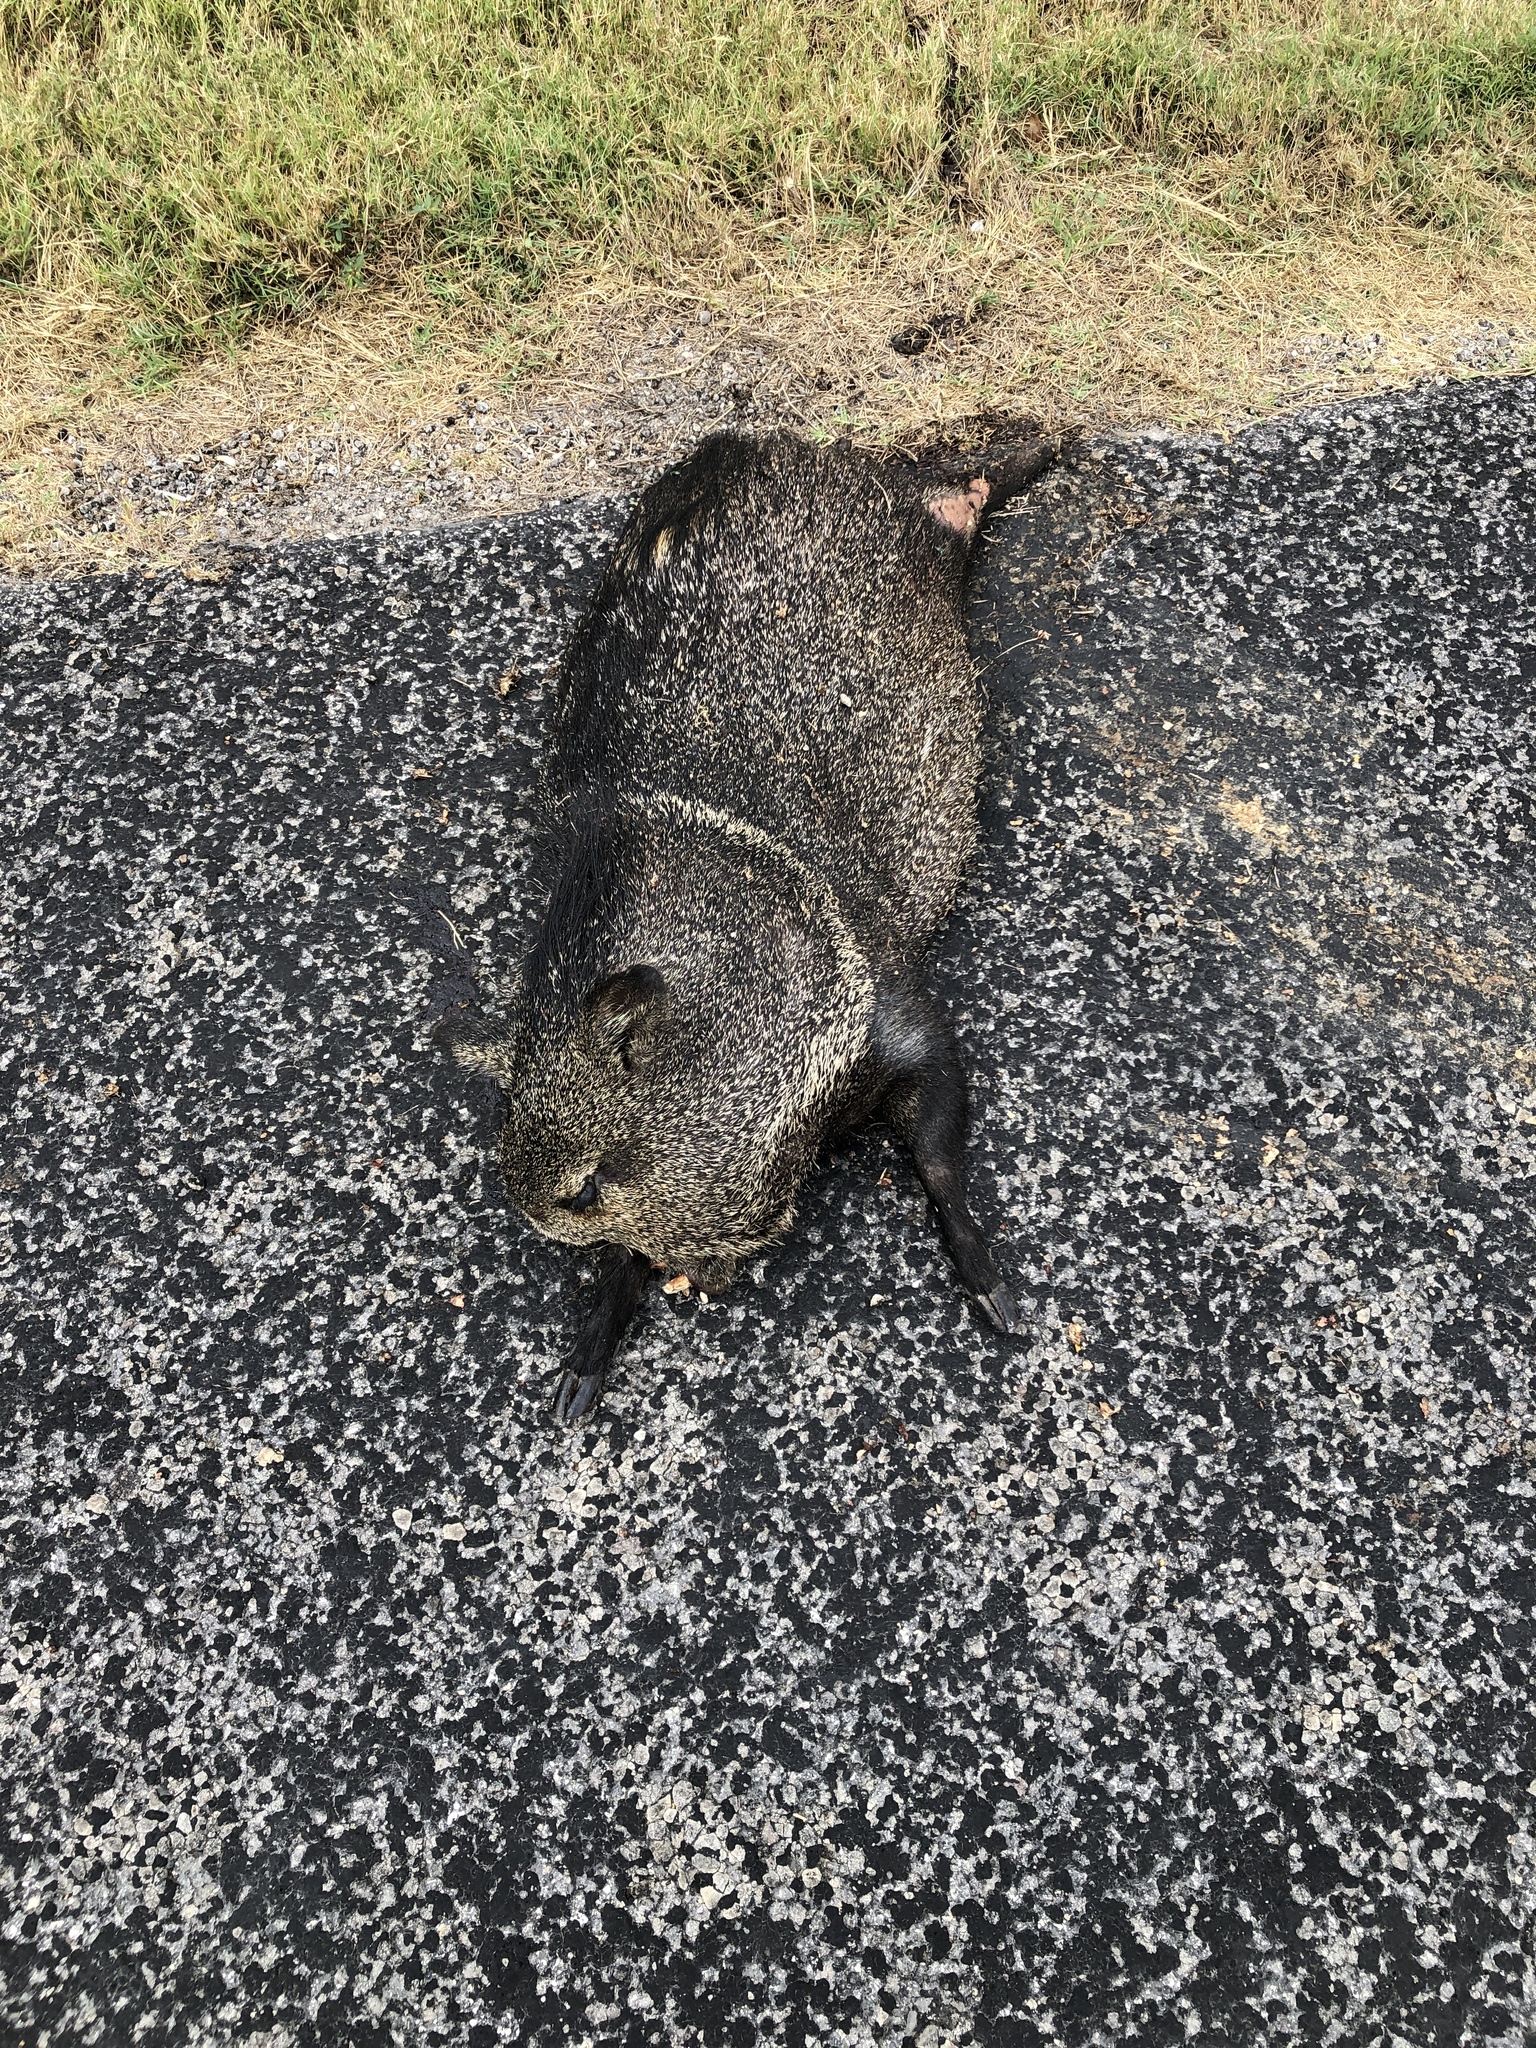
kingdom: Animalia
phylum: Chordata
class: Mammalia
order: Artiodactyla
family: Tayassuidae
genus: Pecari
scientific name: Pecari tajacu
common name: Collared peccary
